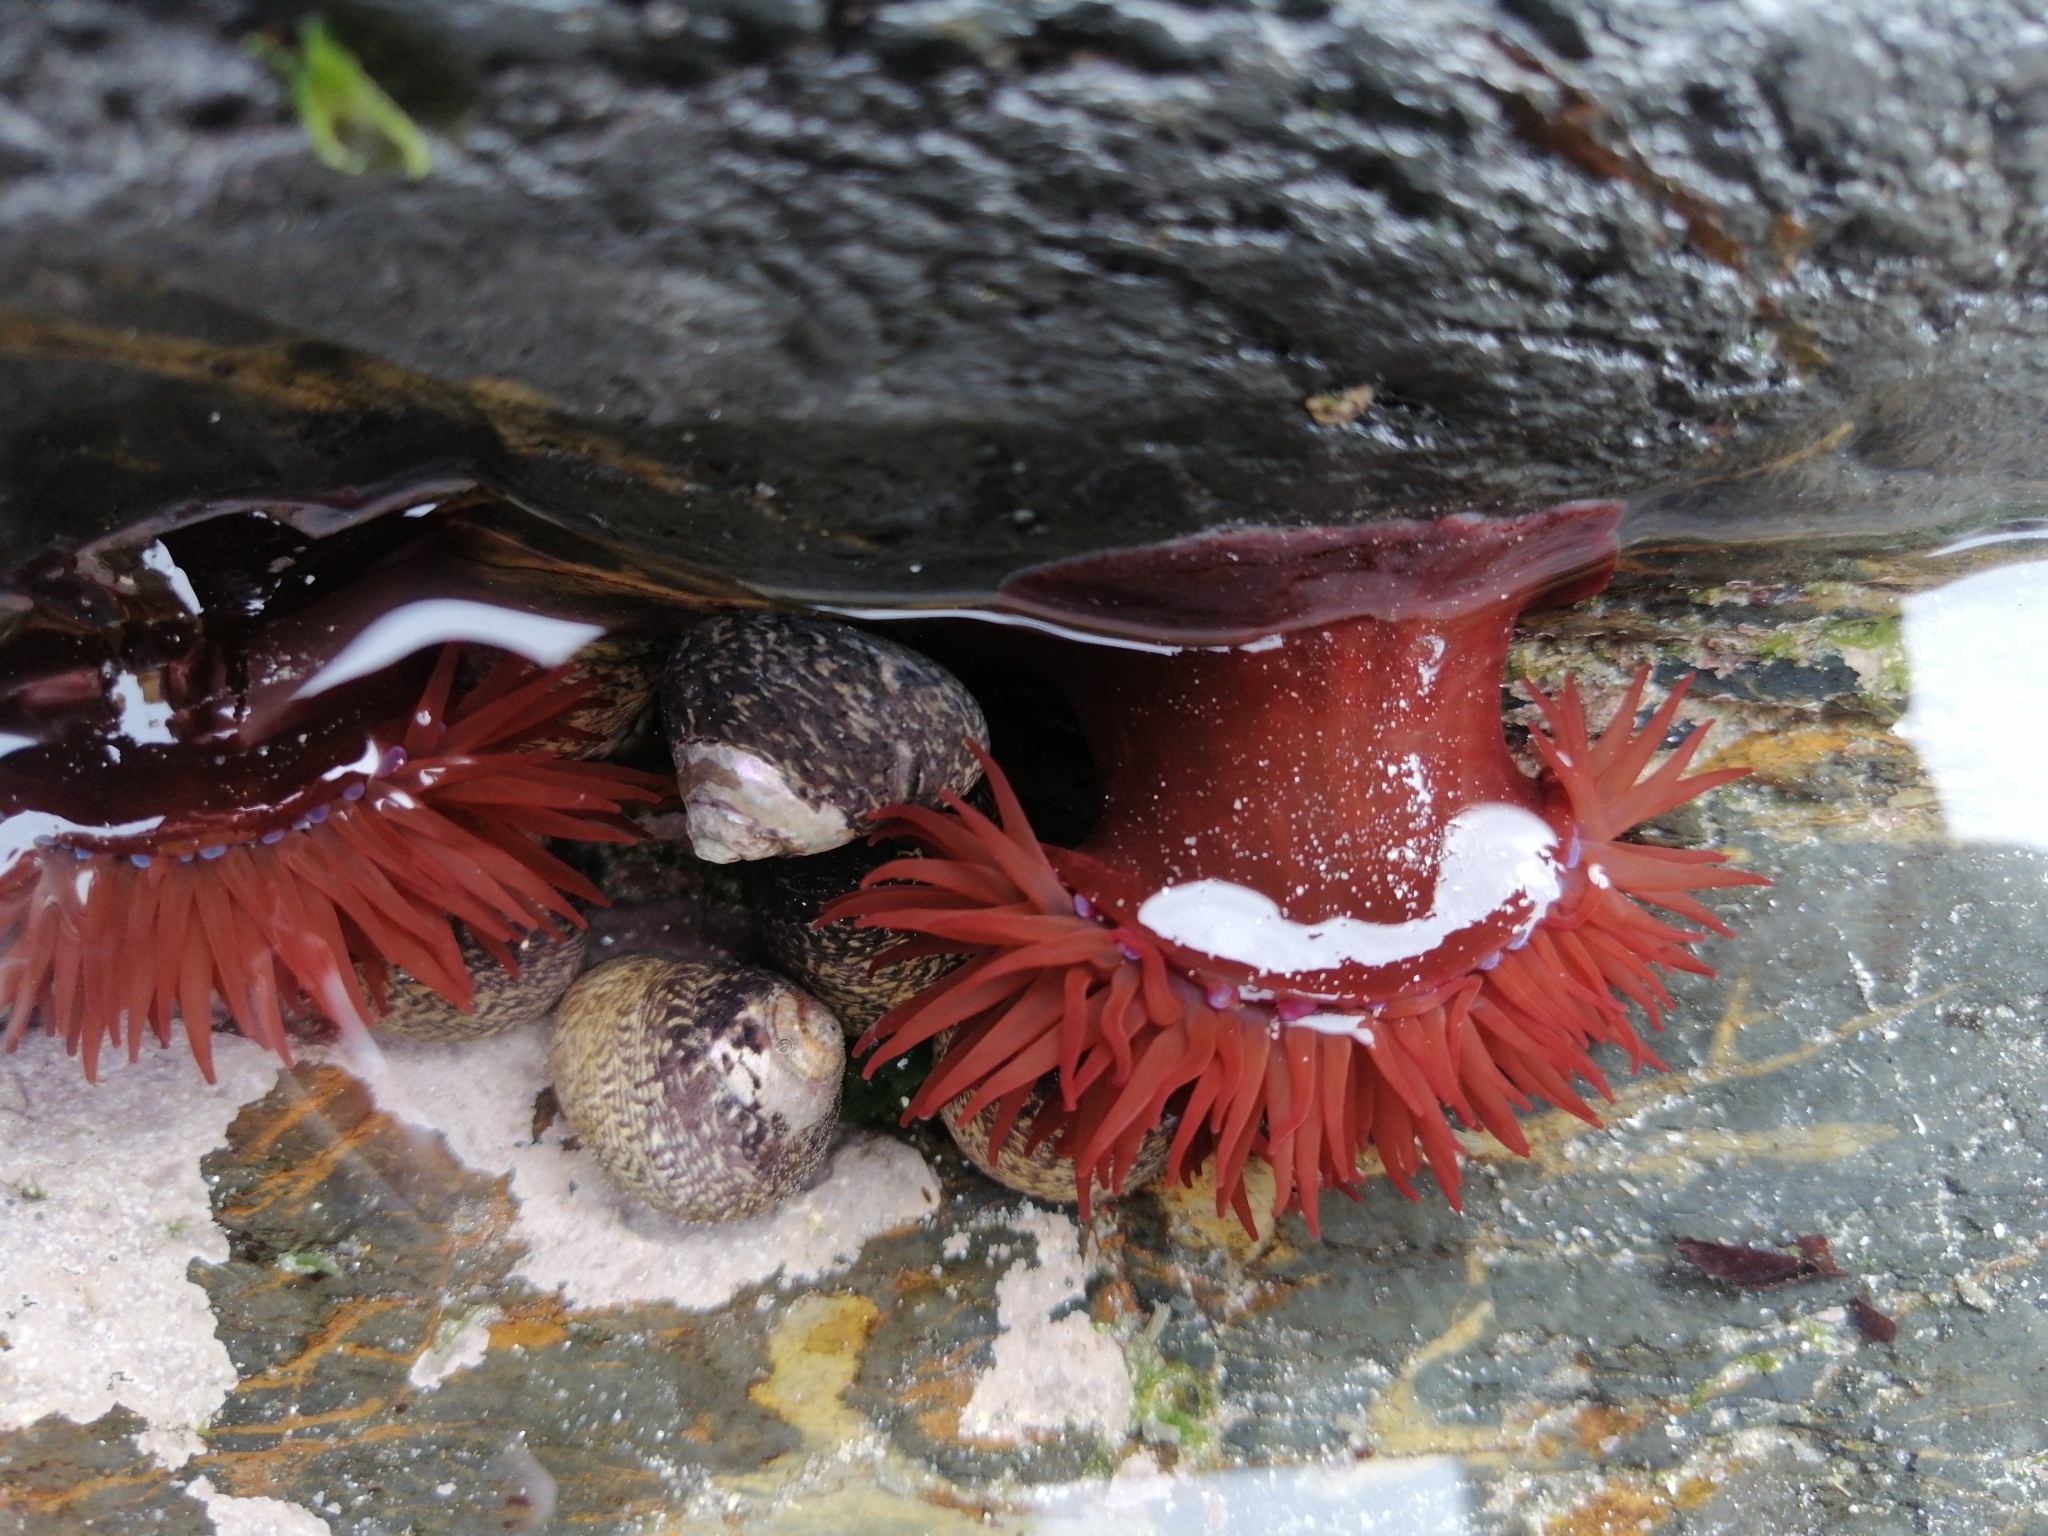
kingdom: Animalia
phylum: Cnidaria
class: Anthozoa
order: Actiniaria
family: Actiniidae
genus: Actinia
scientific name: Actinia equina
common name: Beadlet anemone
